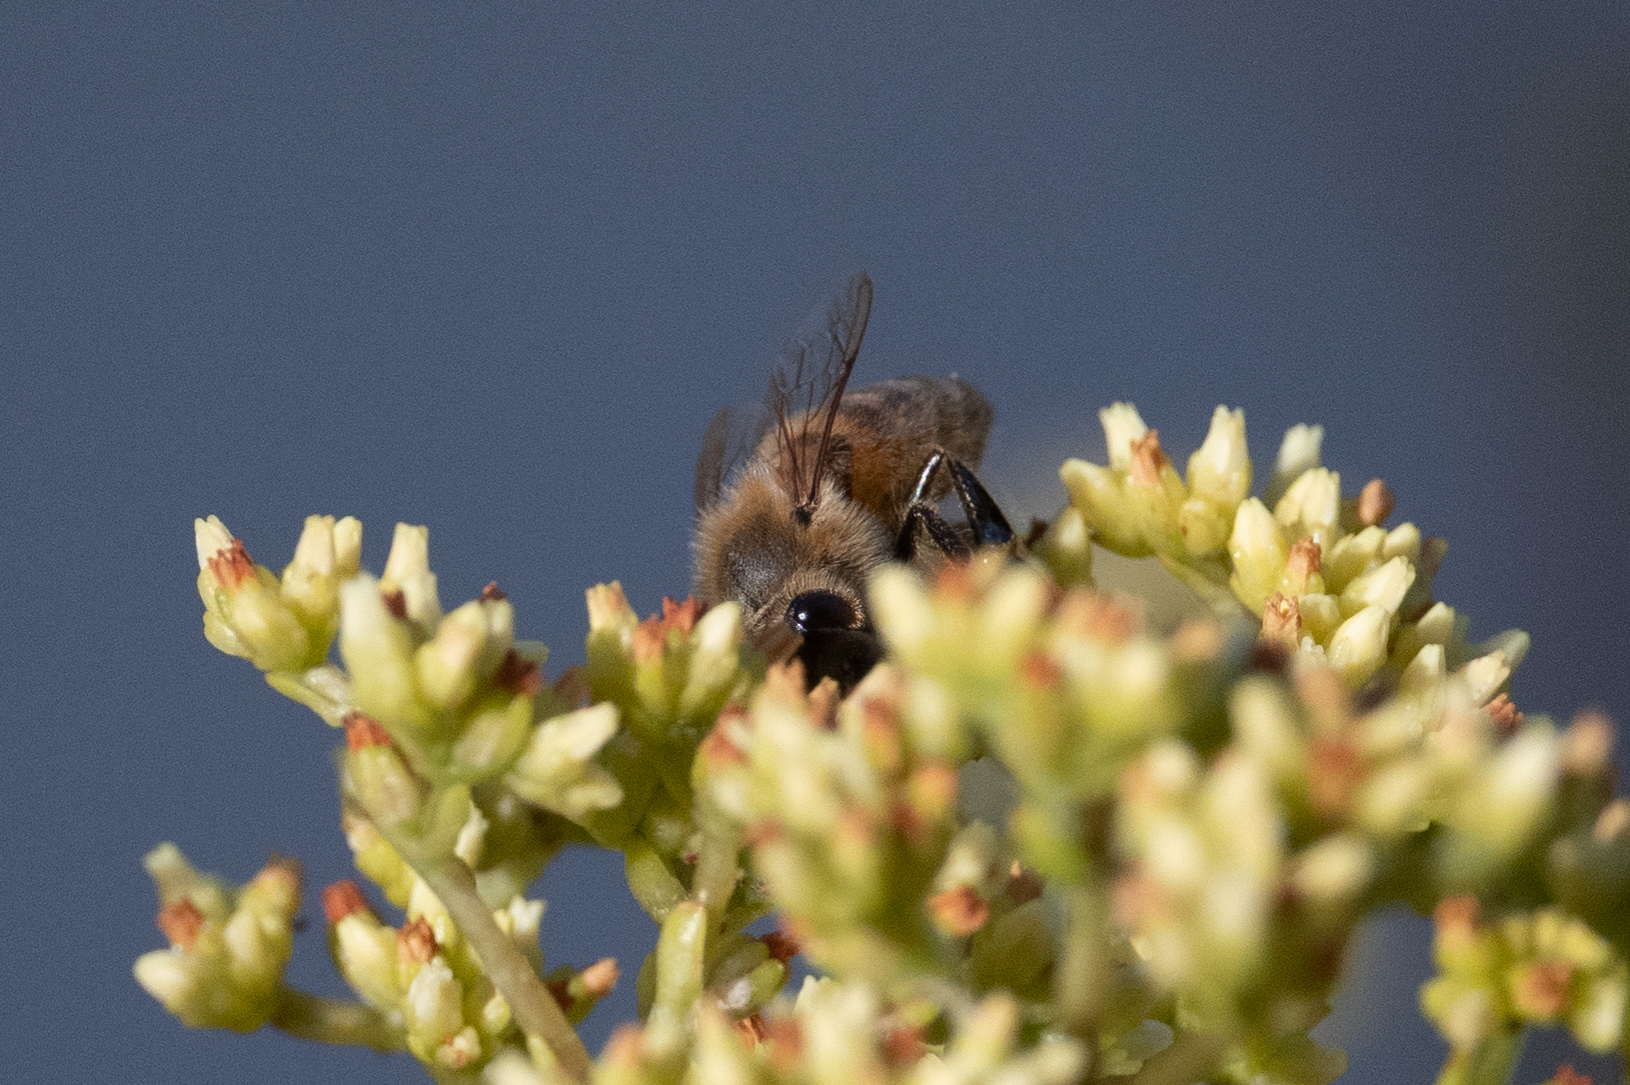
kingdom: Animalia
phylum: Arthropoda
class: Insecta
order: Hymenoptera
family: Apidae
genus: Apis
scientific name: Apis mellifera
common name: Honey bee
